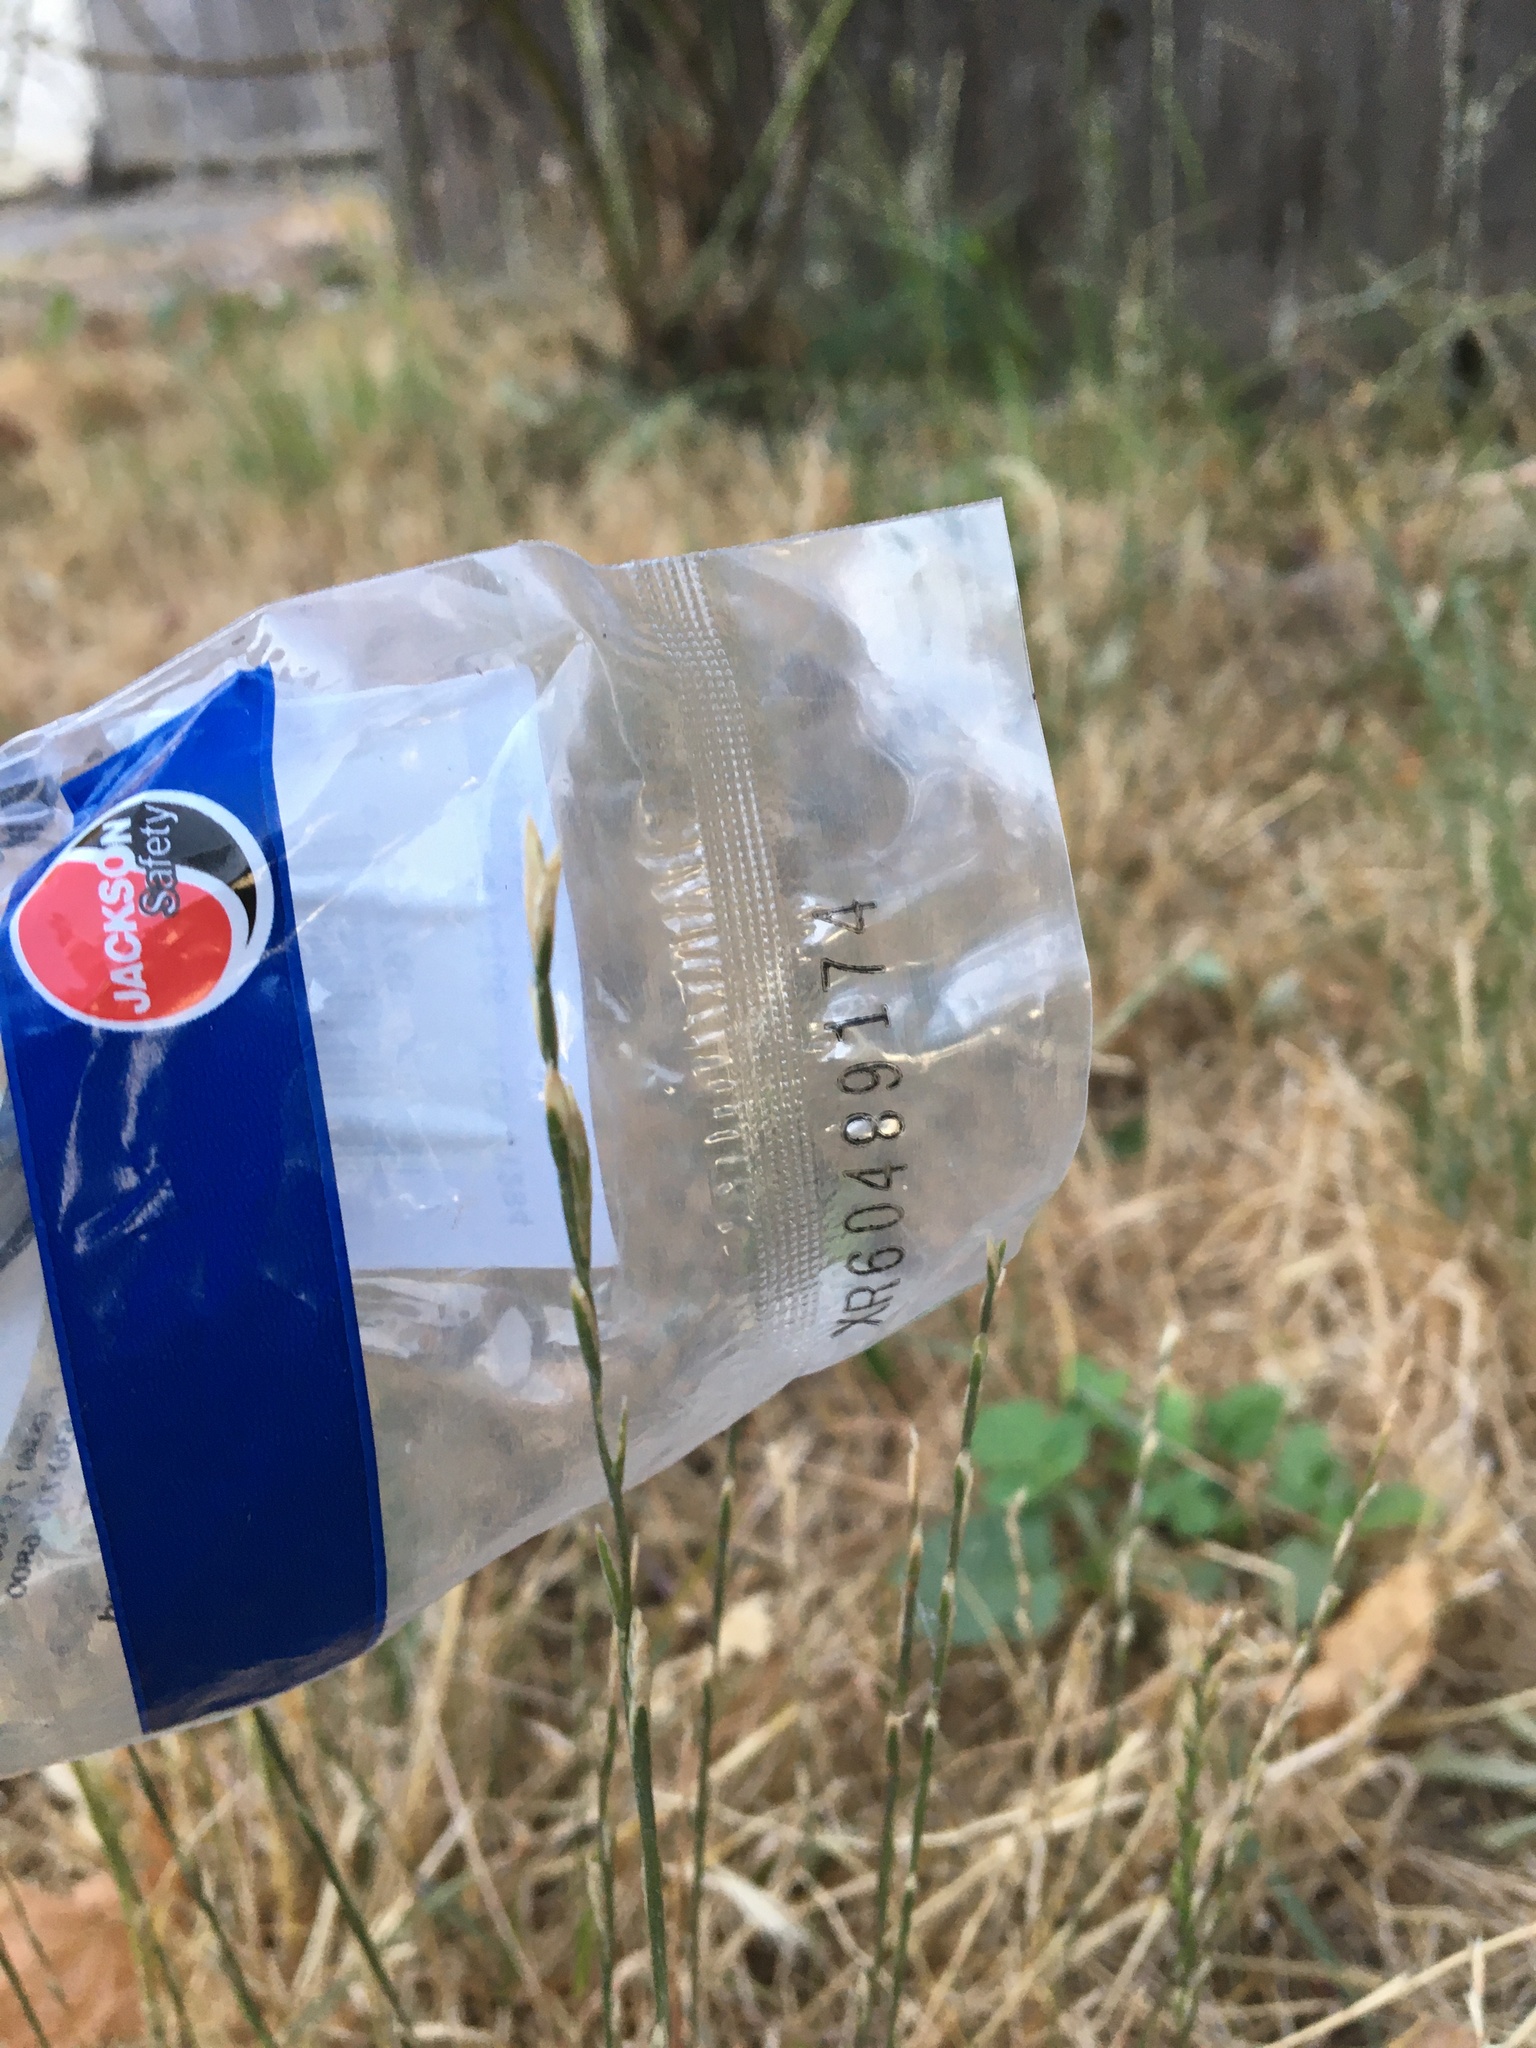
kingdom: Plantae
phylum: Tracheophyta
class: Liliopsida
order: Poales
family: Poaceae
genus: Lolium
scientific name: Lolium perenne
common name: Perennial ryegrass
